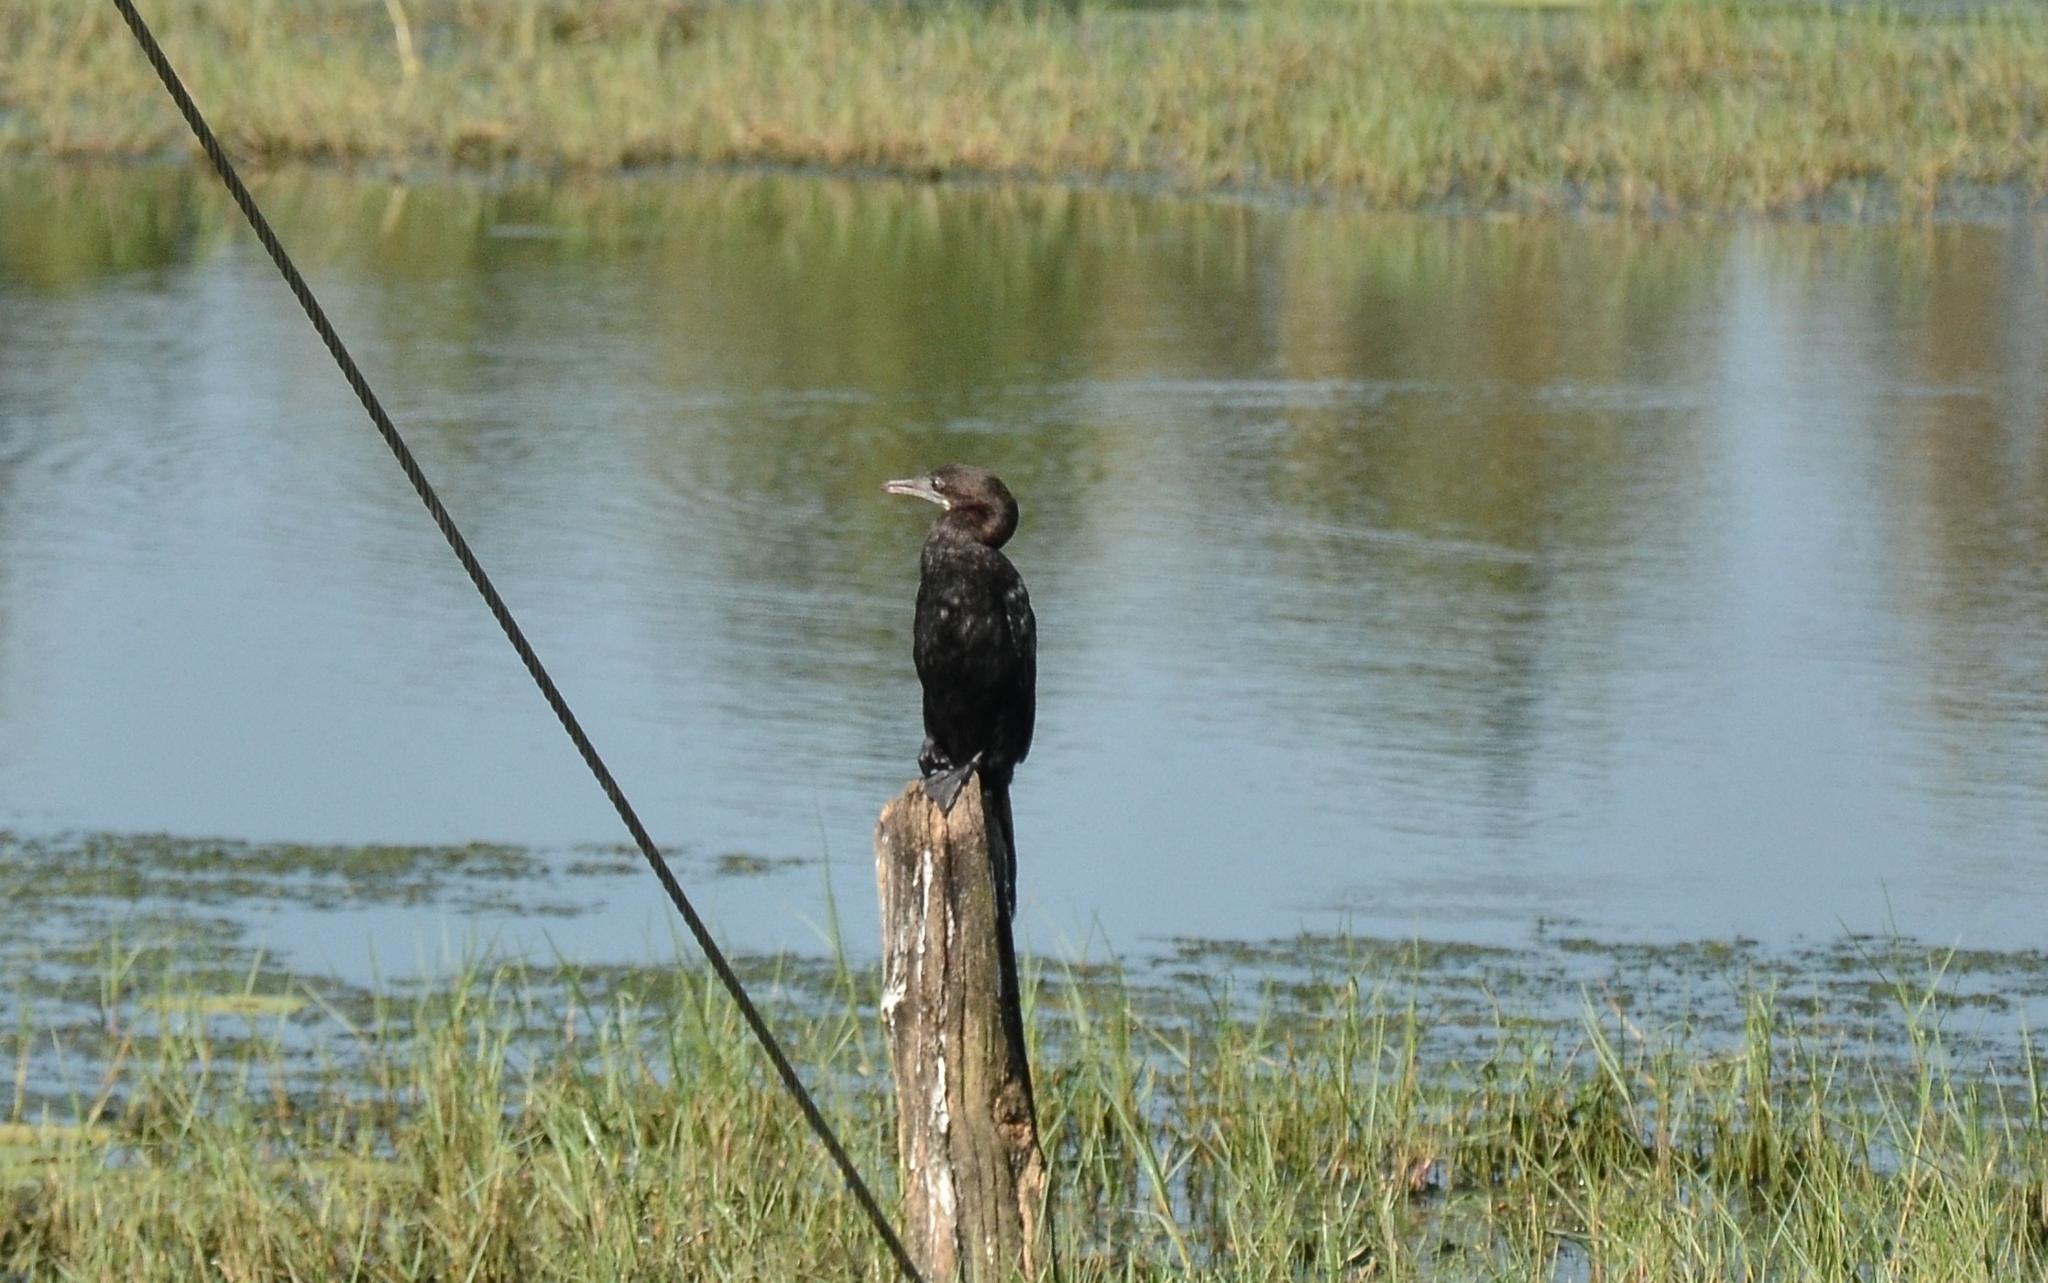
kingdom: Animalia
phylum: Chordata
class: Aves
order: Suliformes
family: Phalacrocoracidae
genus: Microcarbo
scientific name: Microcarbo niger
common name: Little cormorant
